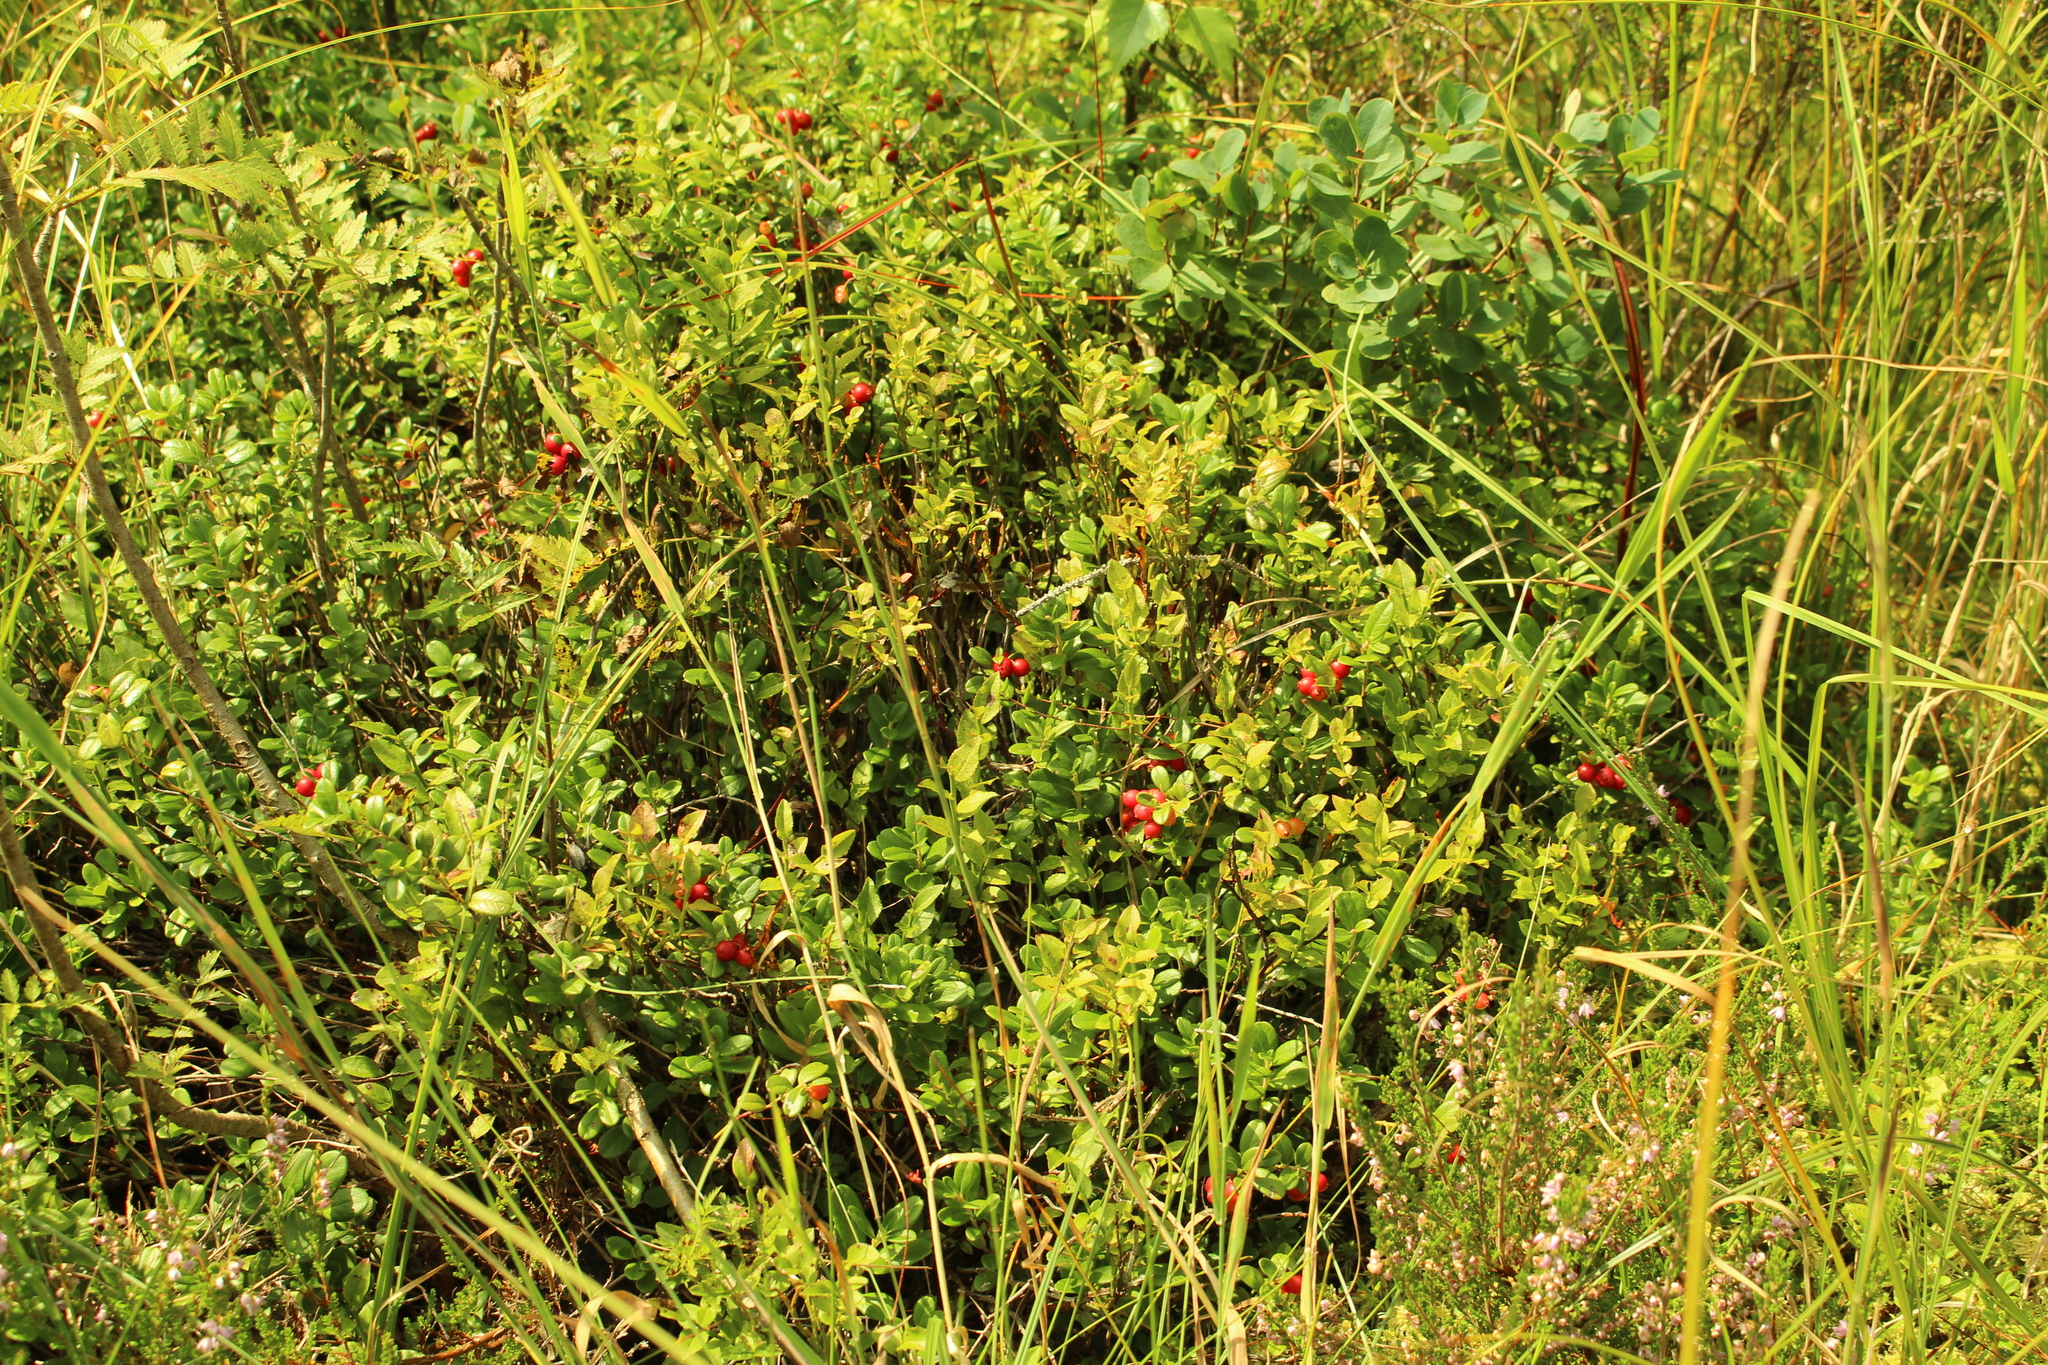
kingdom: Plantae
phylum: Tracheophyta
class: Magnoliopsida
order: Ericales
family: Ericaceae
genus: Vaccinium
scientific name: Vaccinium vitis-idaea
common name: Cowberry
